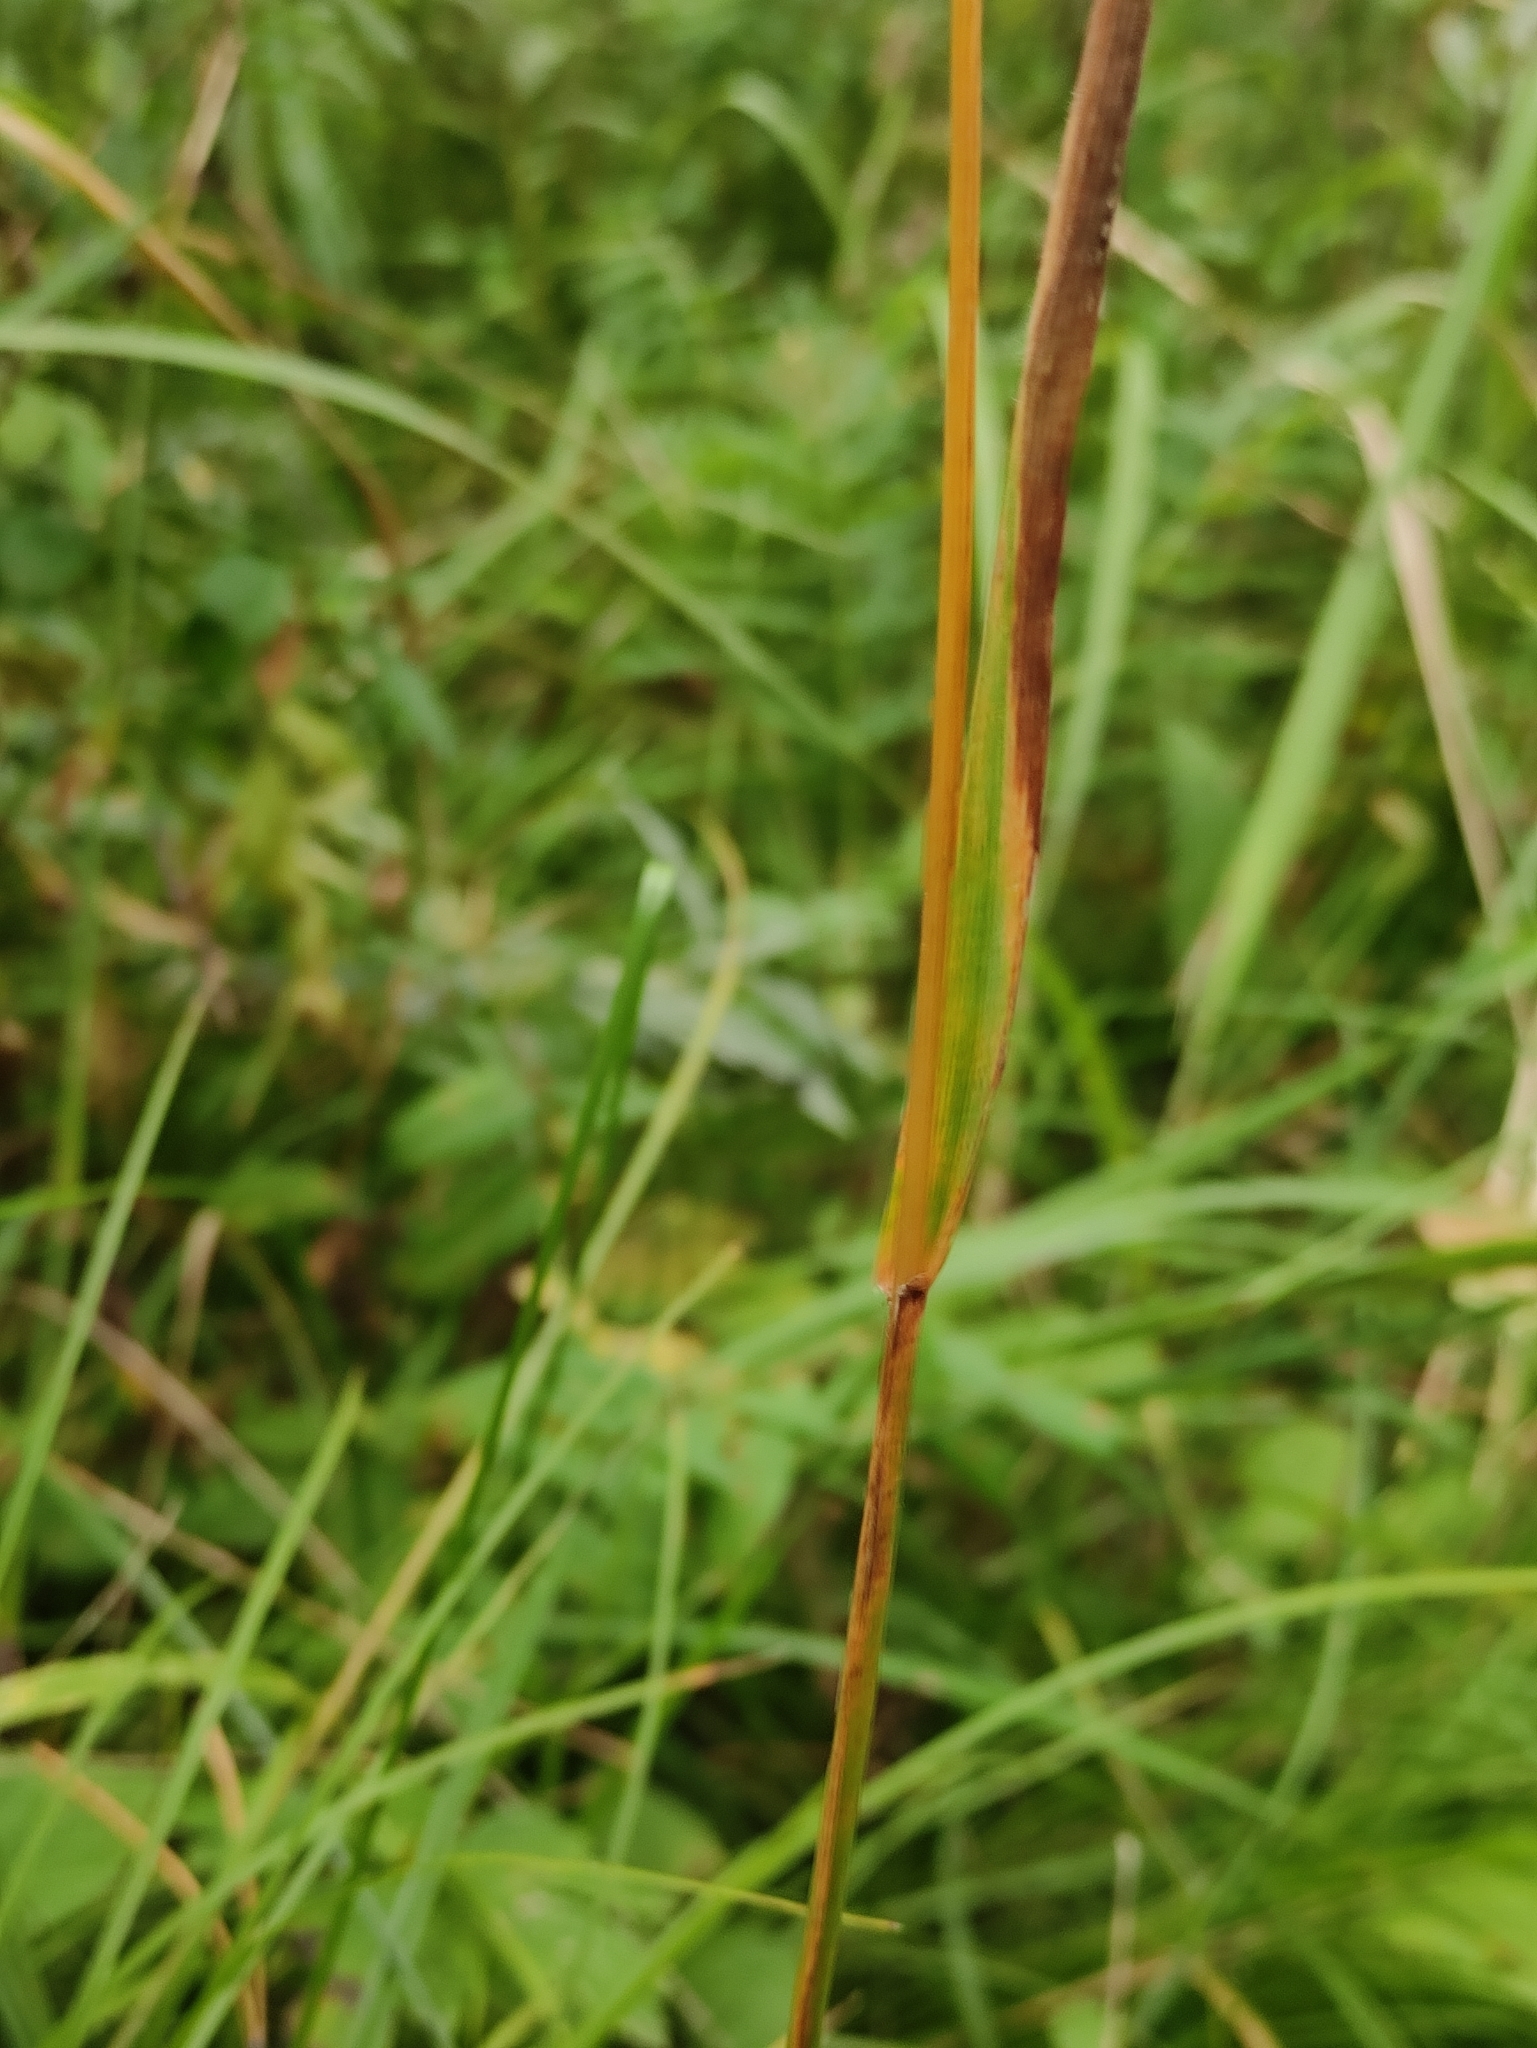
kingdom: Plantae
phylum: Tracheophyta
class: Liliopsida
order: Poales
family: Poaceae
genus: Calamagrostis
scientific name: Calamagrostis arundinacea
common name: Metskastik
